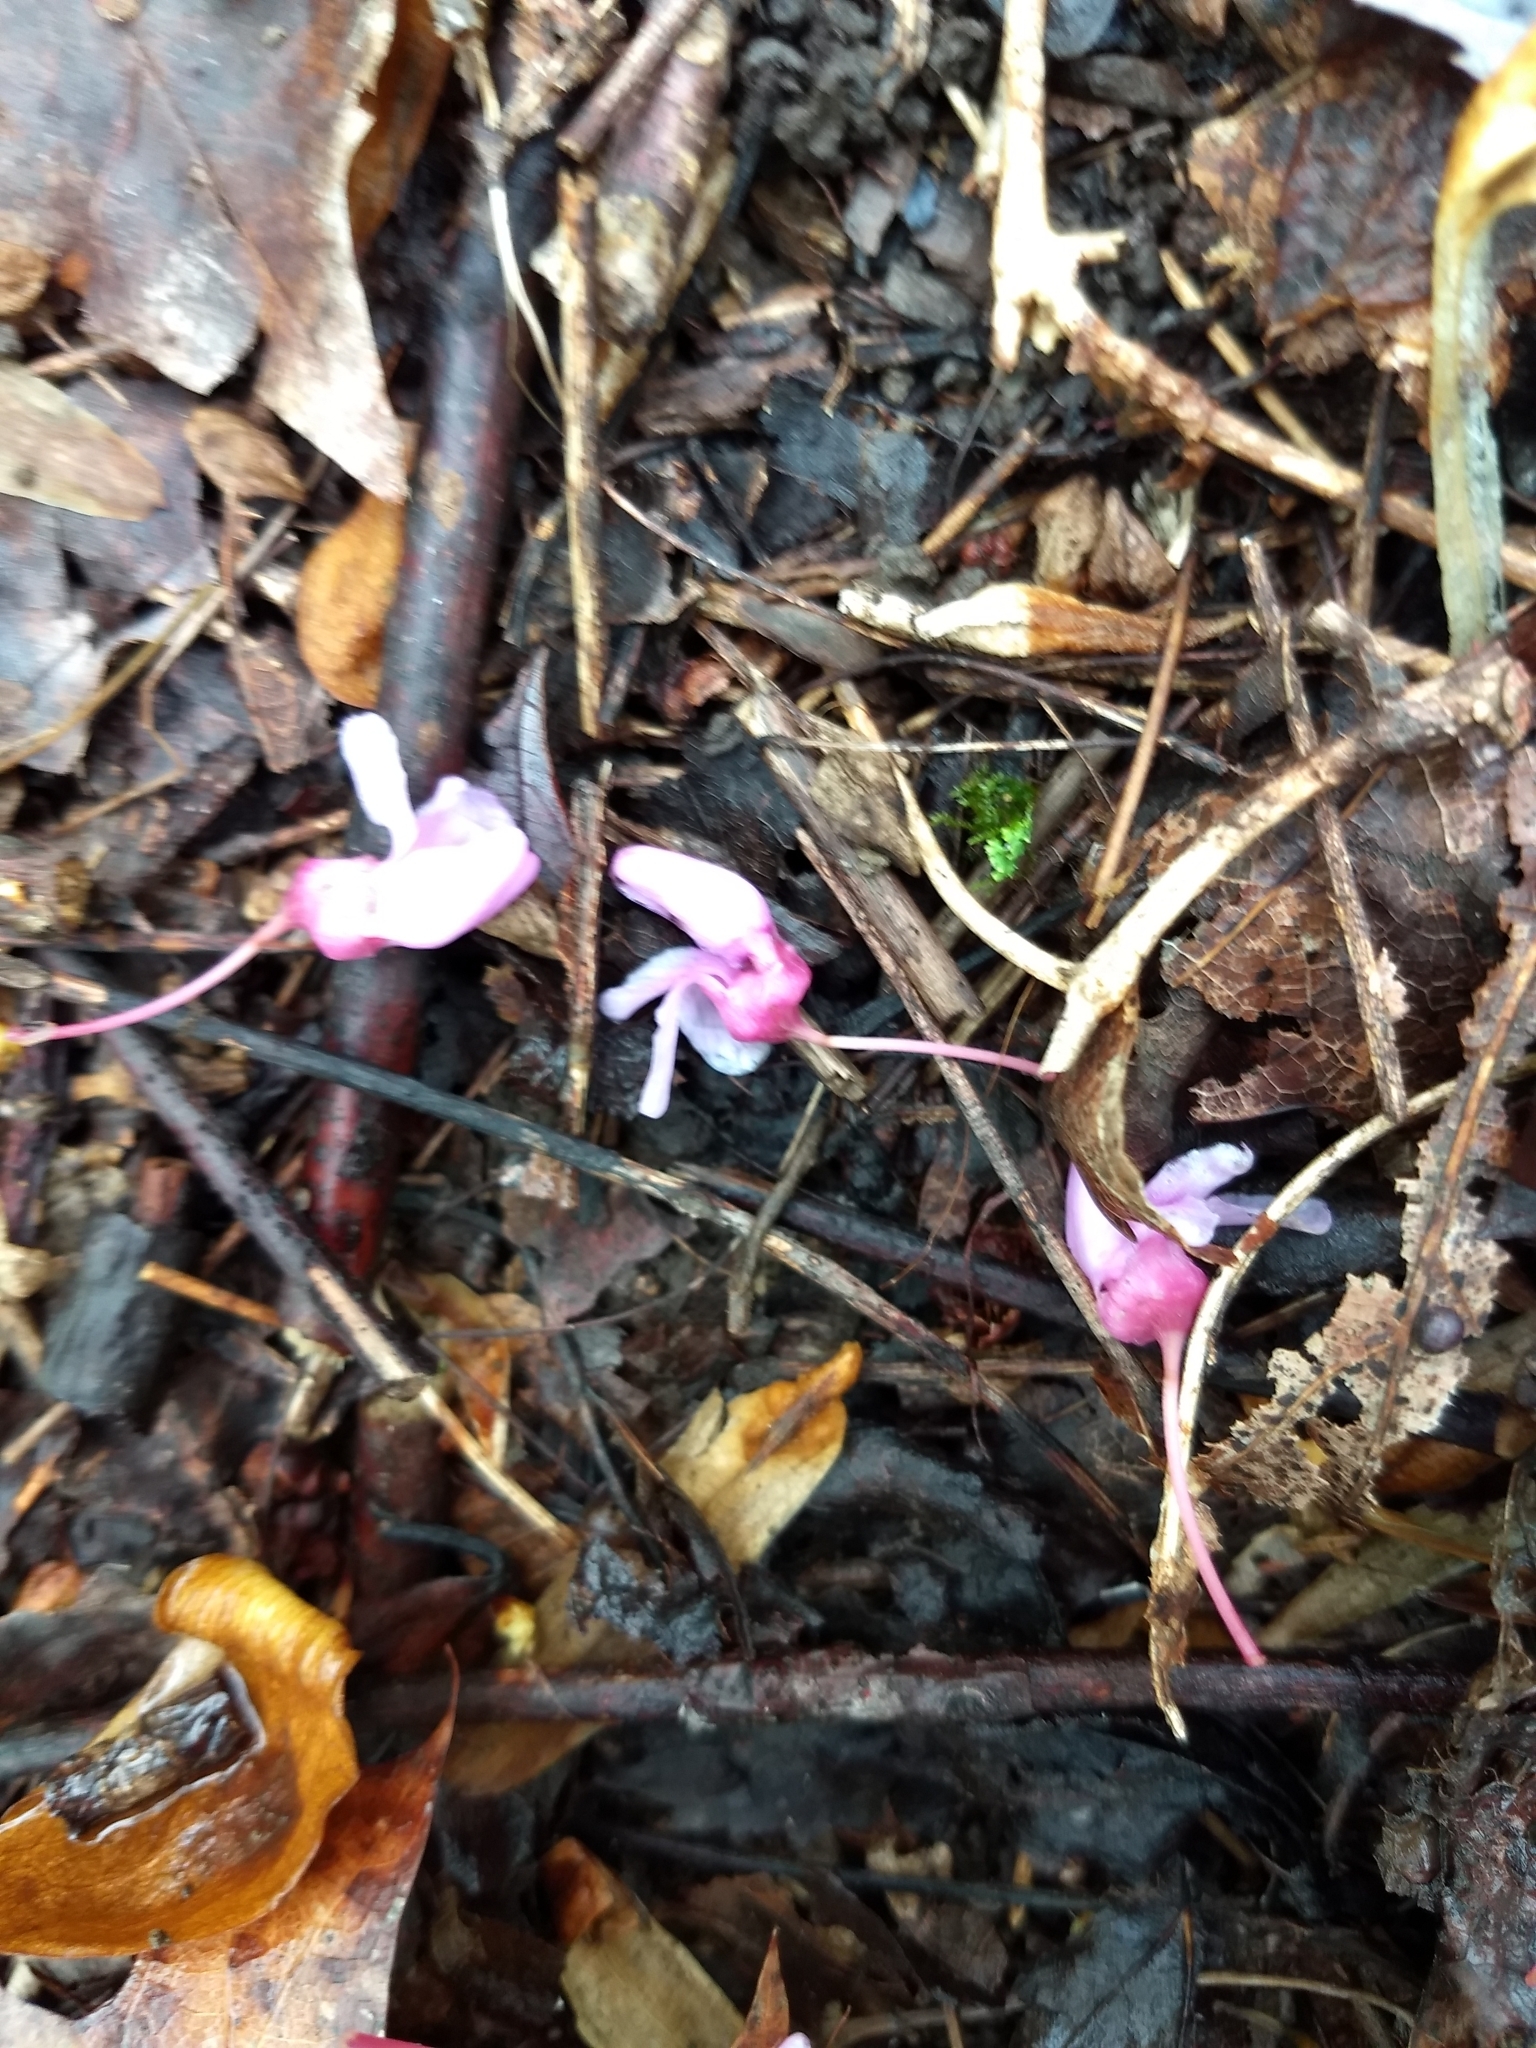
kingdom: Plantae
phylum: Tracheophyta
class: Magnoliopsida
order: Fabales
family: Fabaceae
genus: Cercis
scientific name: Cercis canadensis
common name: Eastern redbud
